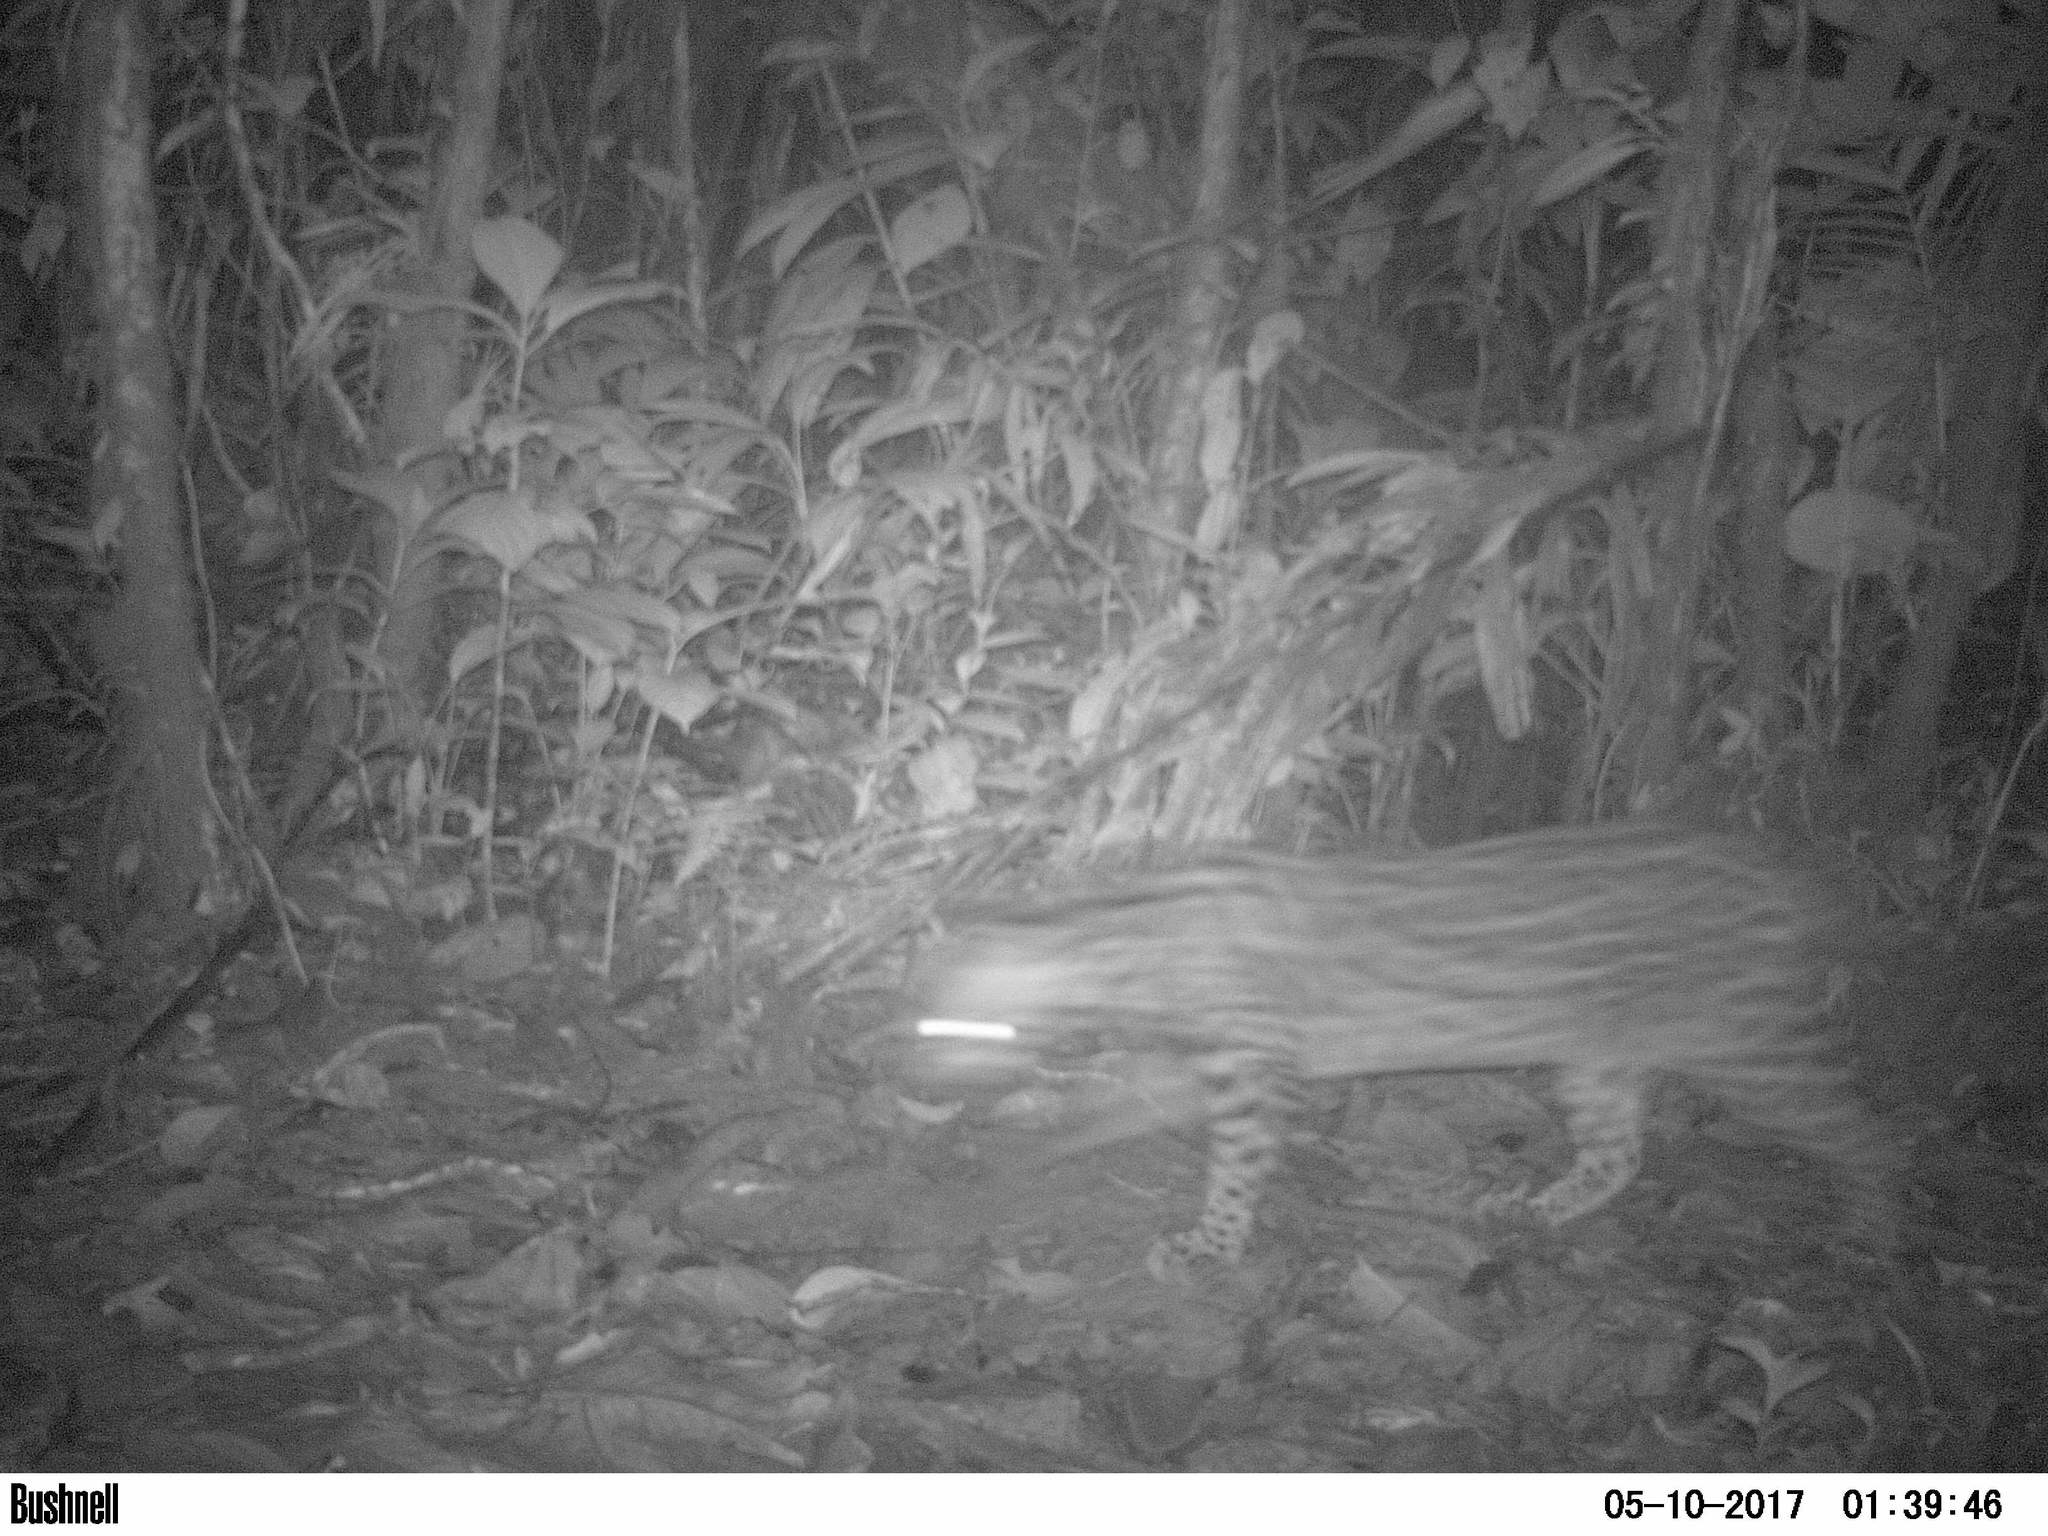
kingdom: Animalia
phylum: Chordata
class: Mammalia
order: Carnivora
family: Felidae
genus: Leopardus
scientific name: Leopardus pardalis
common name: Ocelot
